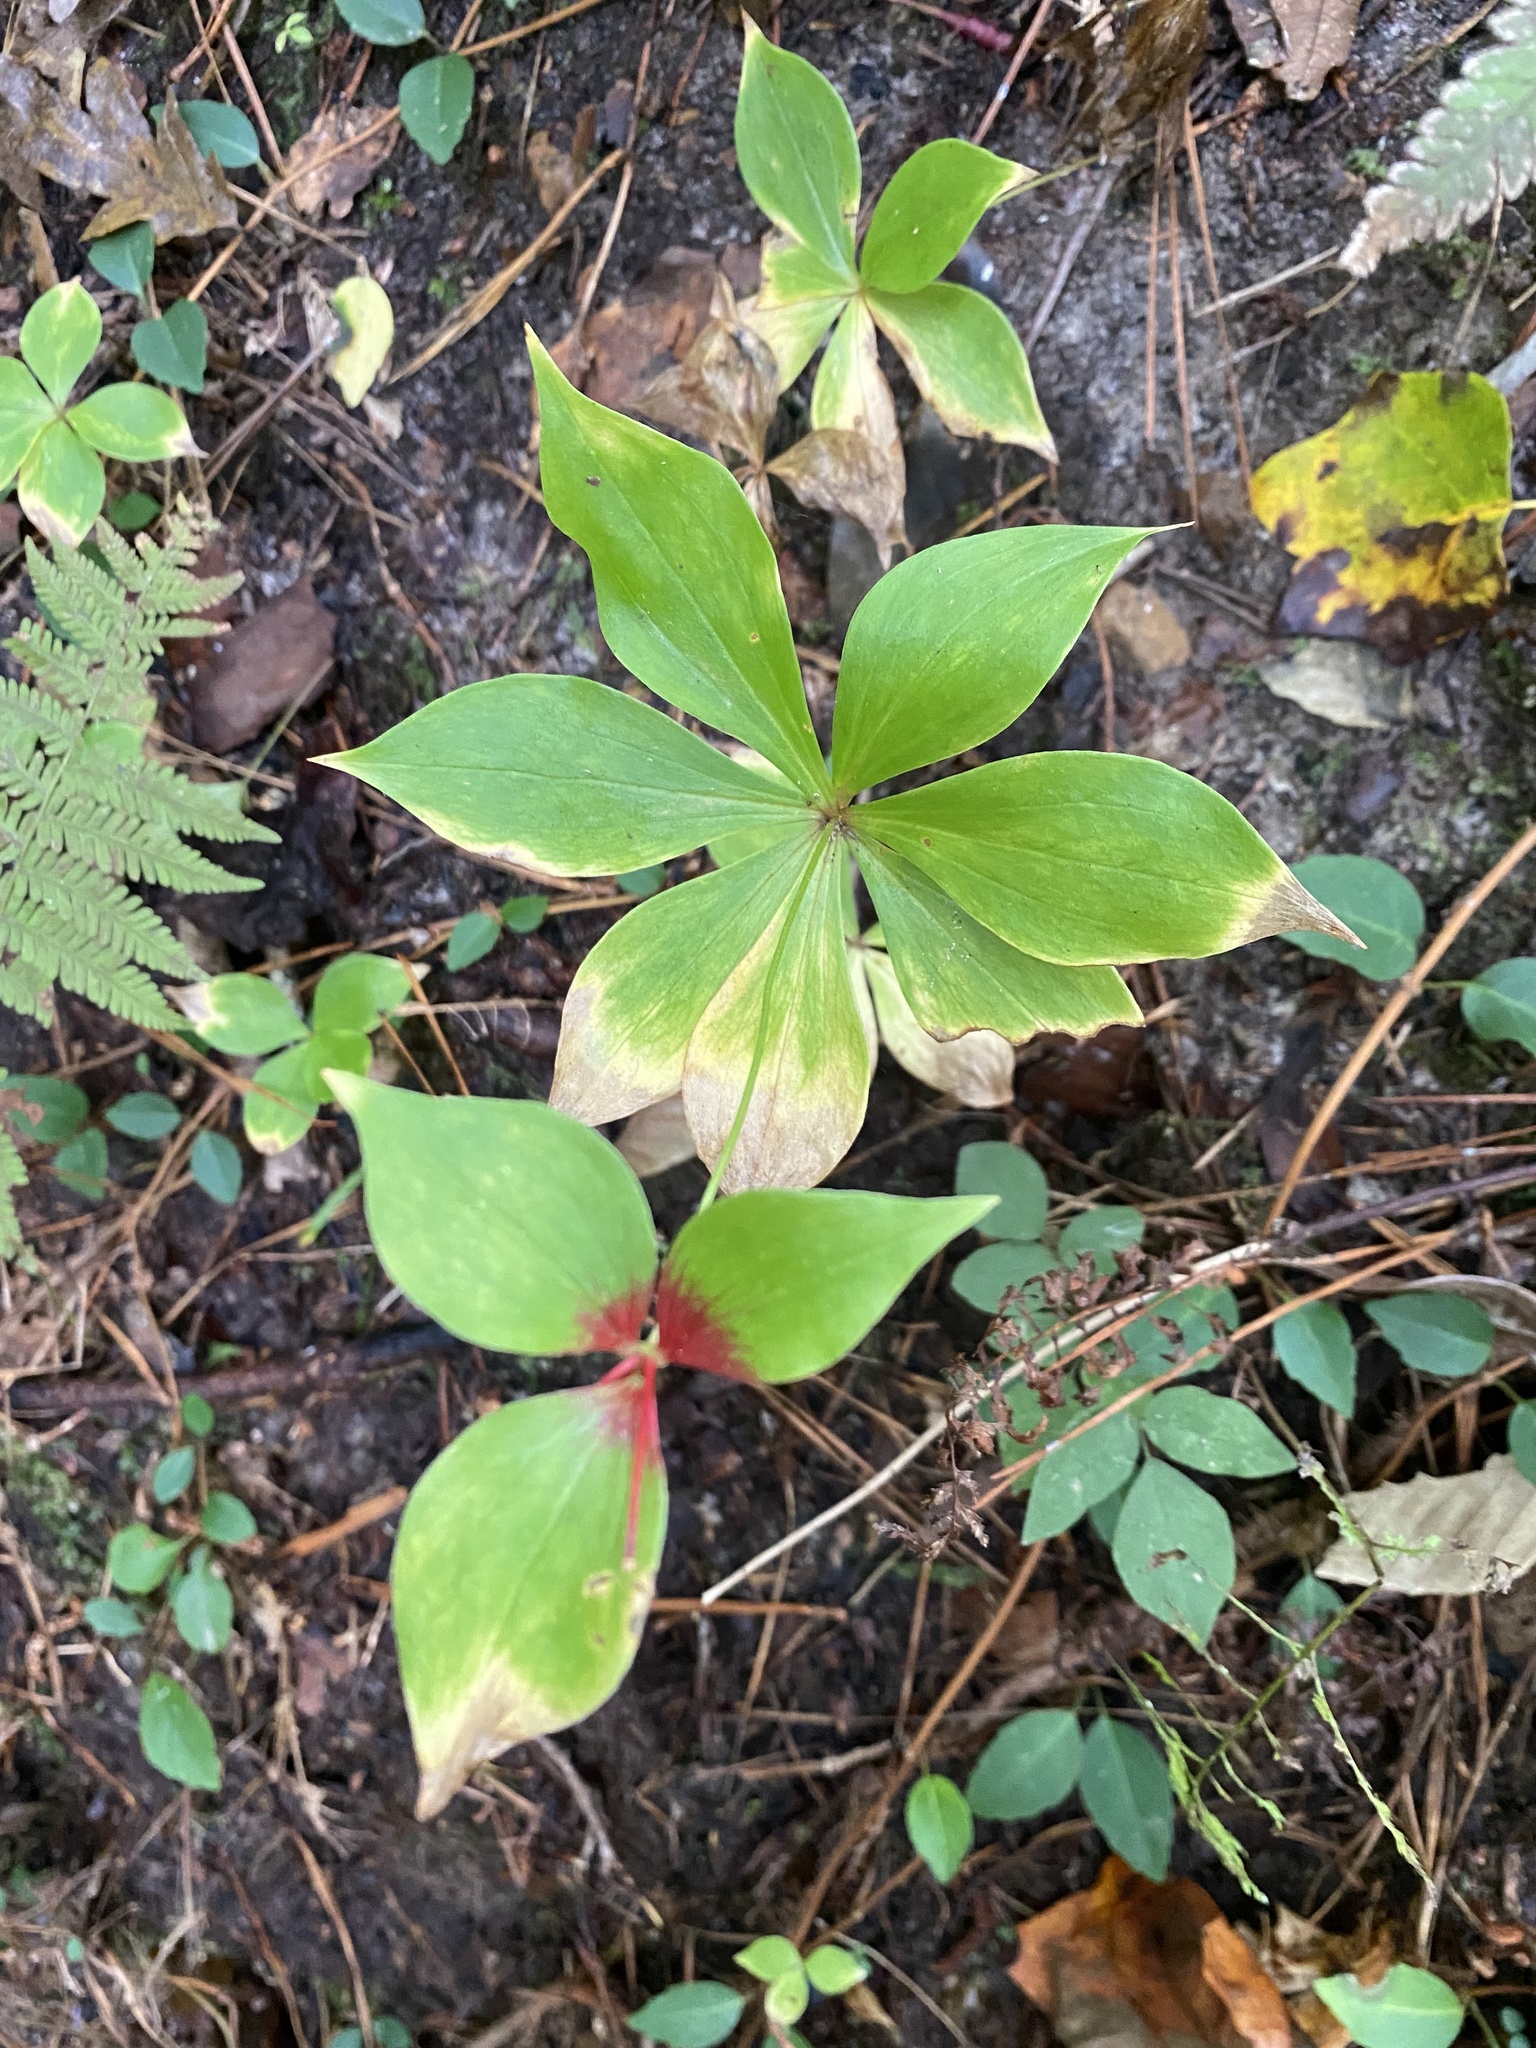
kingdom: Plantae
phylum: Tracheophyta
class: Liliopsida
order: Liliales
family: Liliaceae
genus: Medeola
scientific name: Medeola virginiana
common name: Indian cucumber-root
